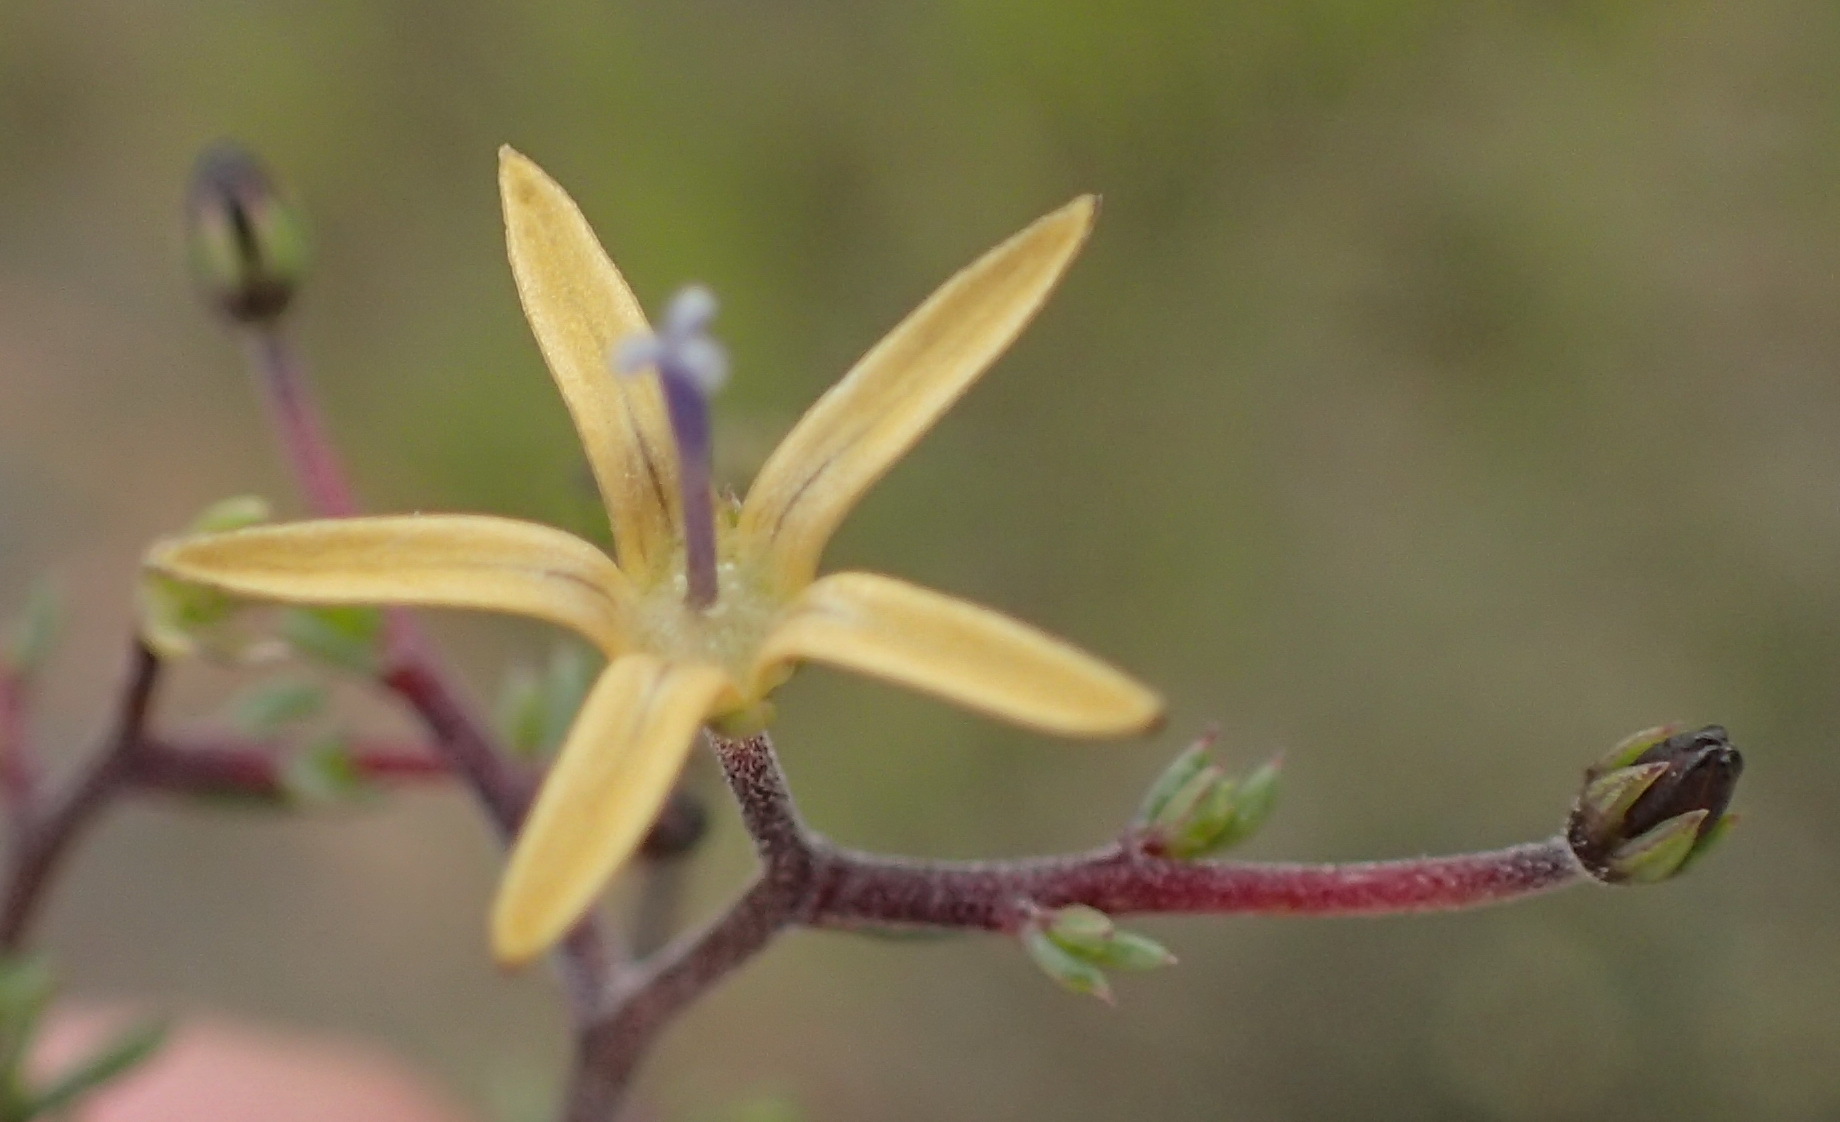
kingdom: Plantae
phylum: Tracheophyta
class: Magnoliopsida
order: Asterales
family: Campanulaceae
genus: Wahlenbergia
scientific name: Wahlenbergia albens
